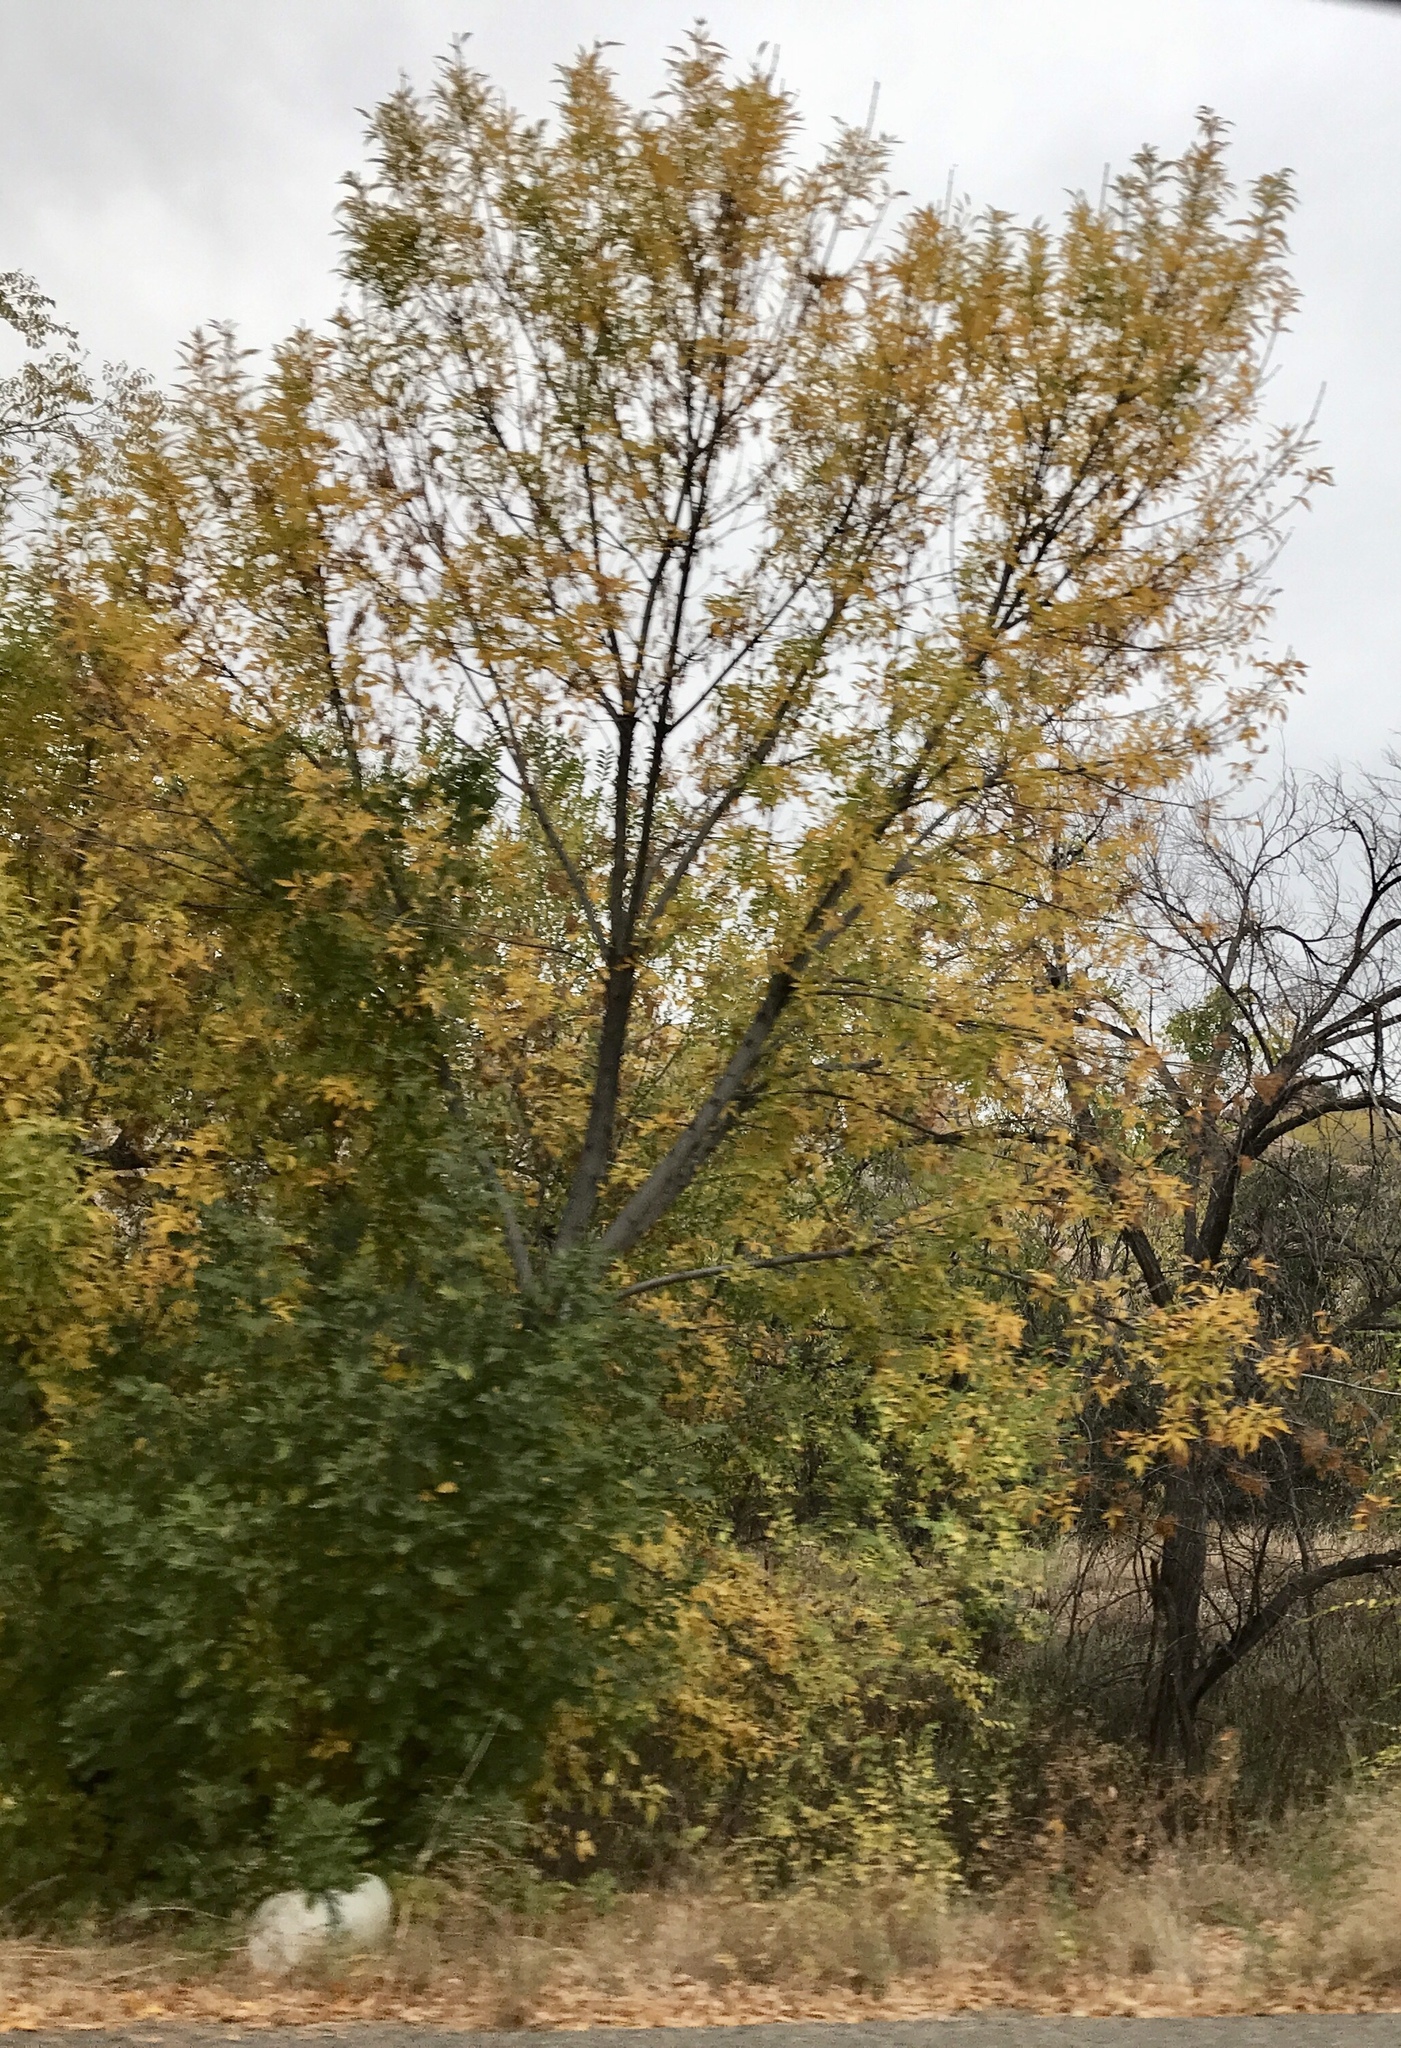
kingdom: Plantae
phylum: Tracheophyta
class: Magnoliopsida
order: Malpighiales
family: Salicaceae
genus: Populus
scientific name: Populus fremontii
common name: Fremont's cottonwood
